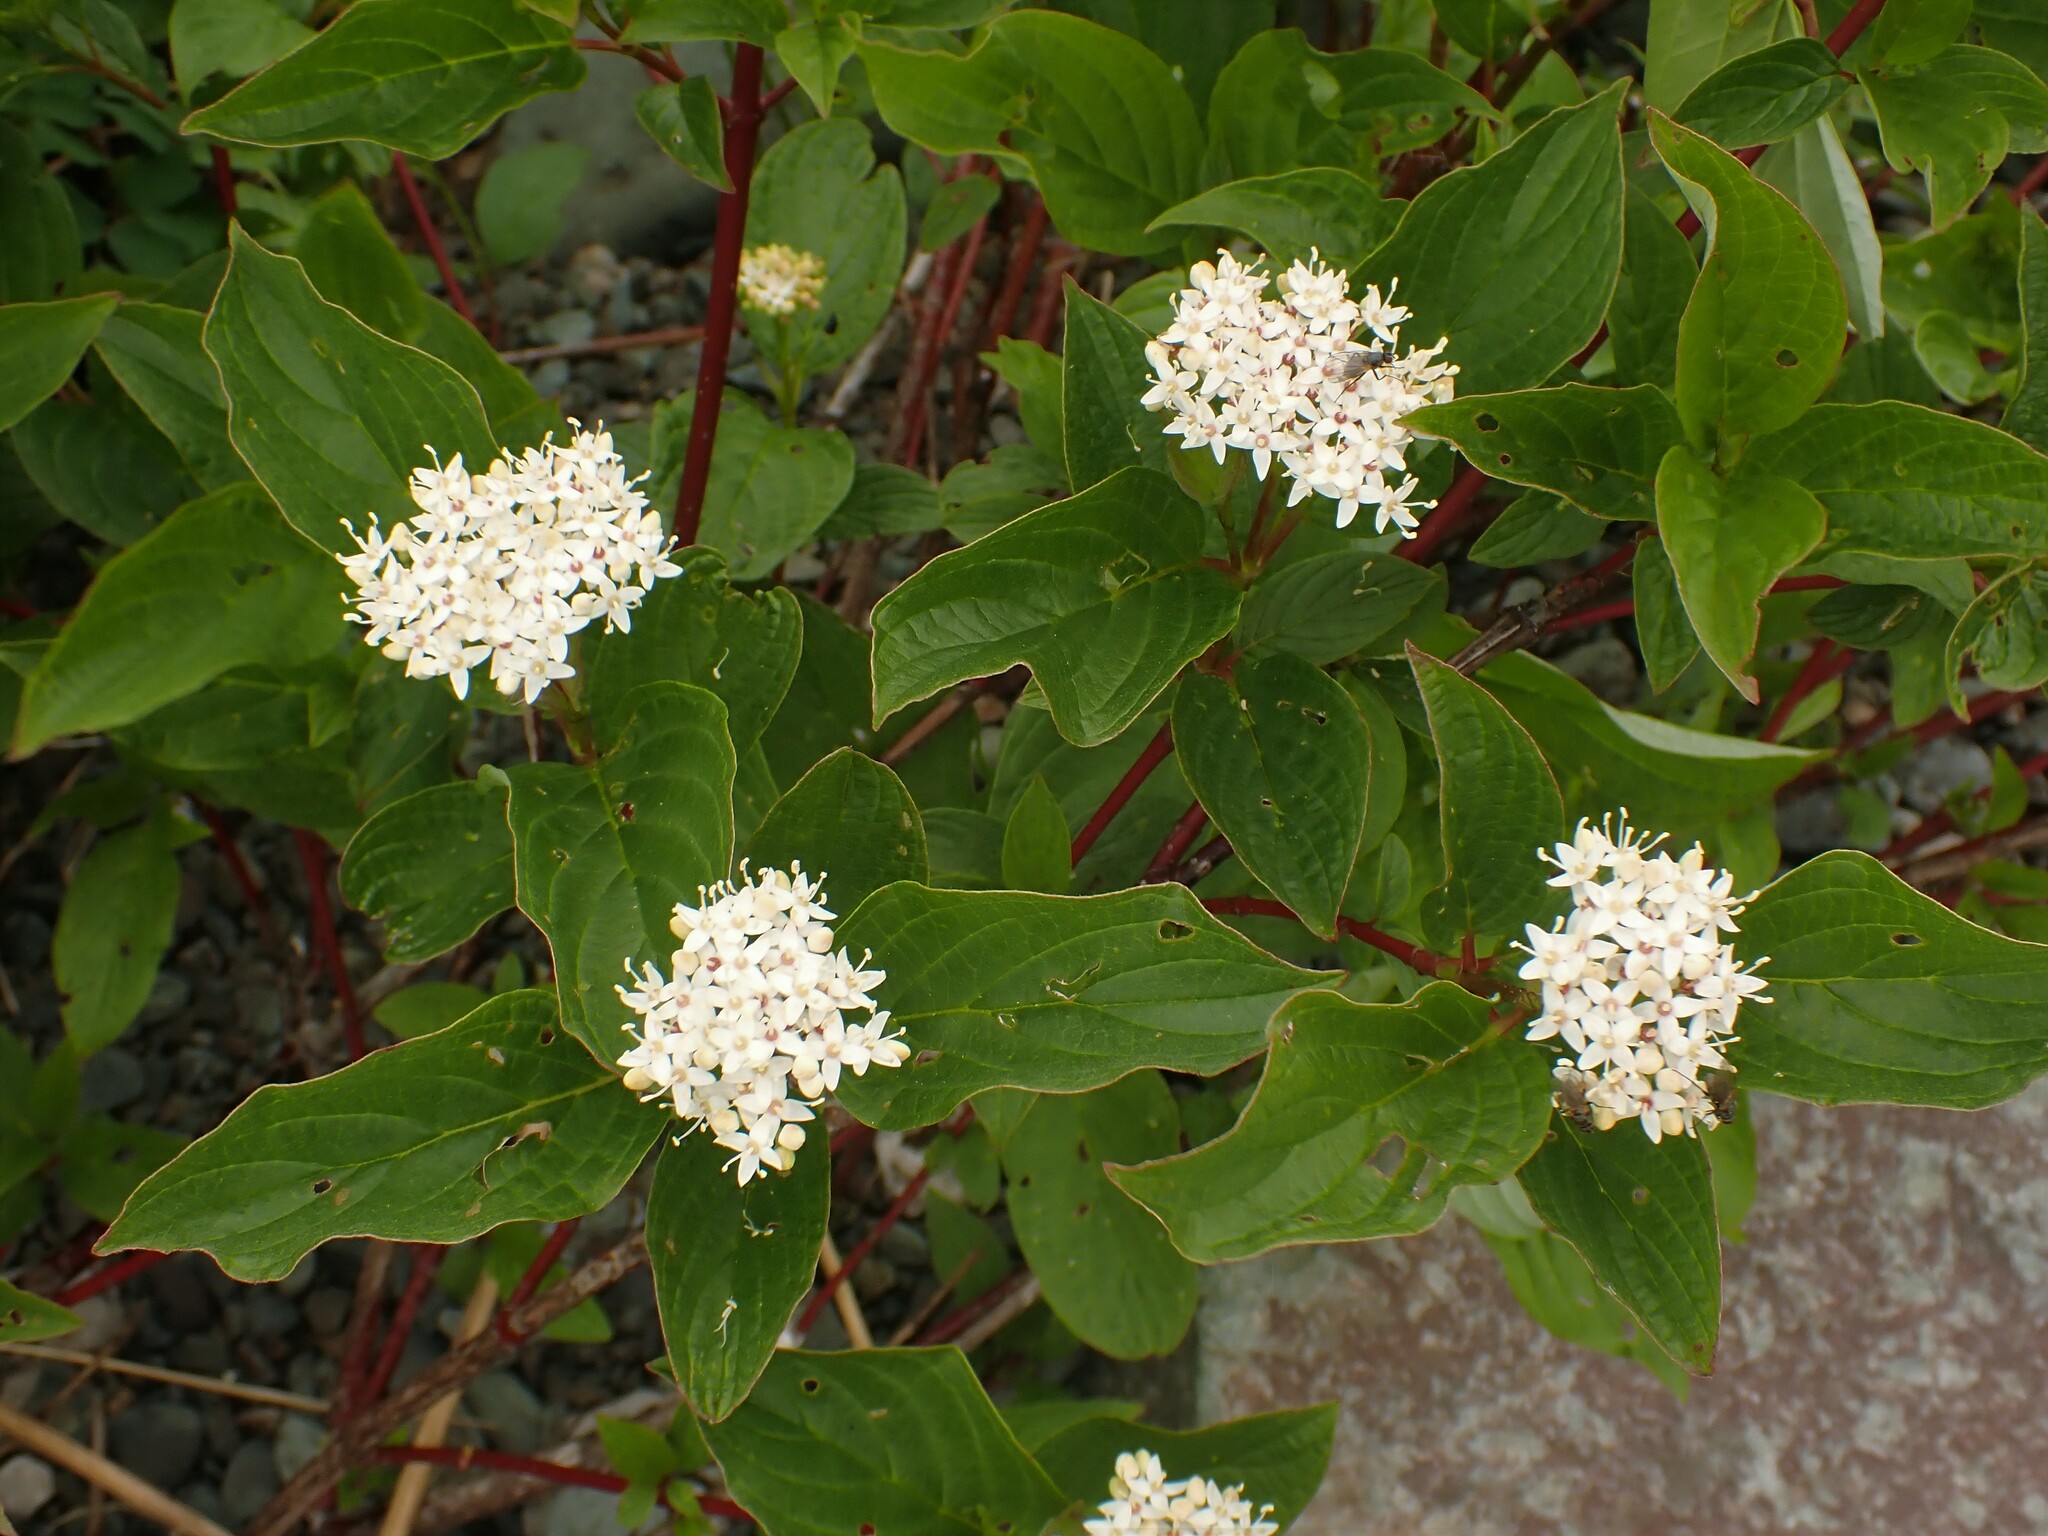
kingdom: Plantae
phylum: Tracheophyta
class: Magnoliopsida
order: Cornales
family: Cornaceae
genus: Cornus
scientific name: Cornus sericea
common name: Red-osier dogwood
